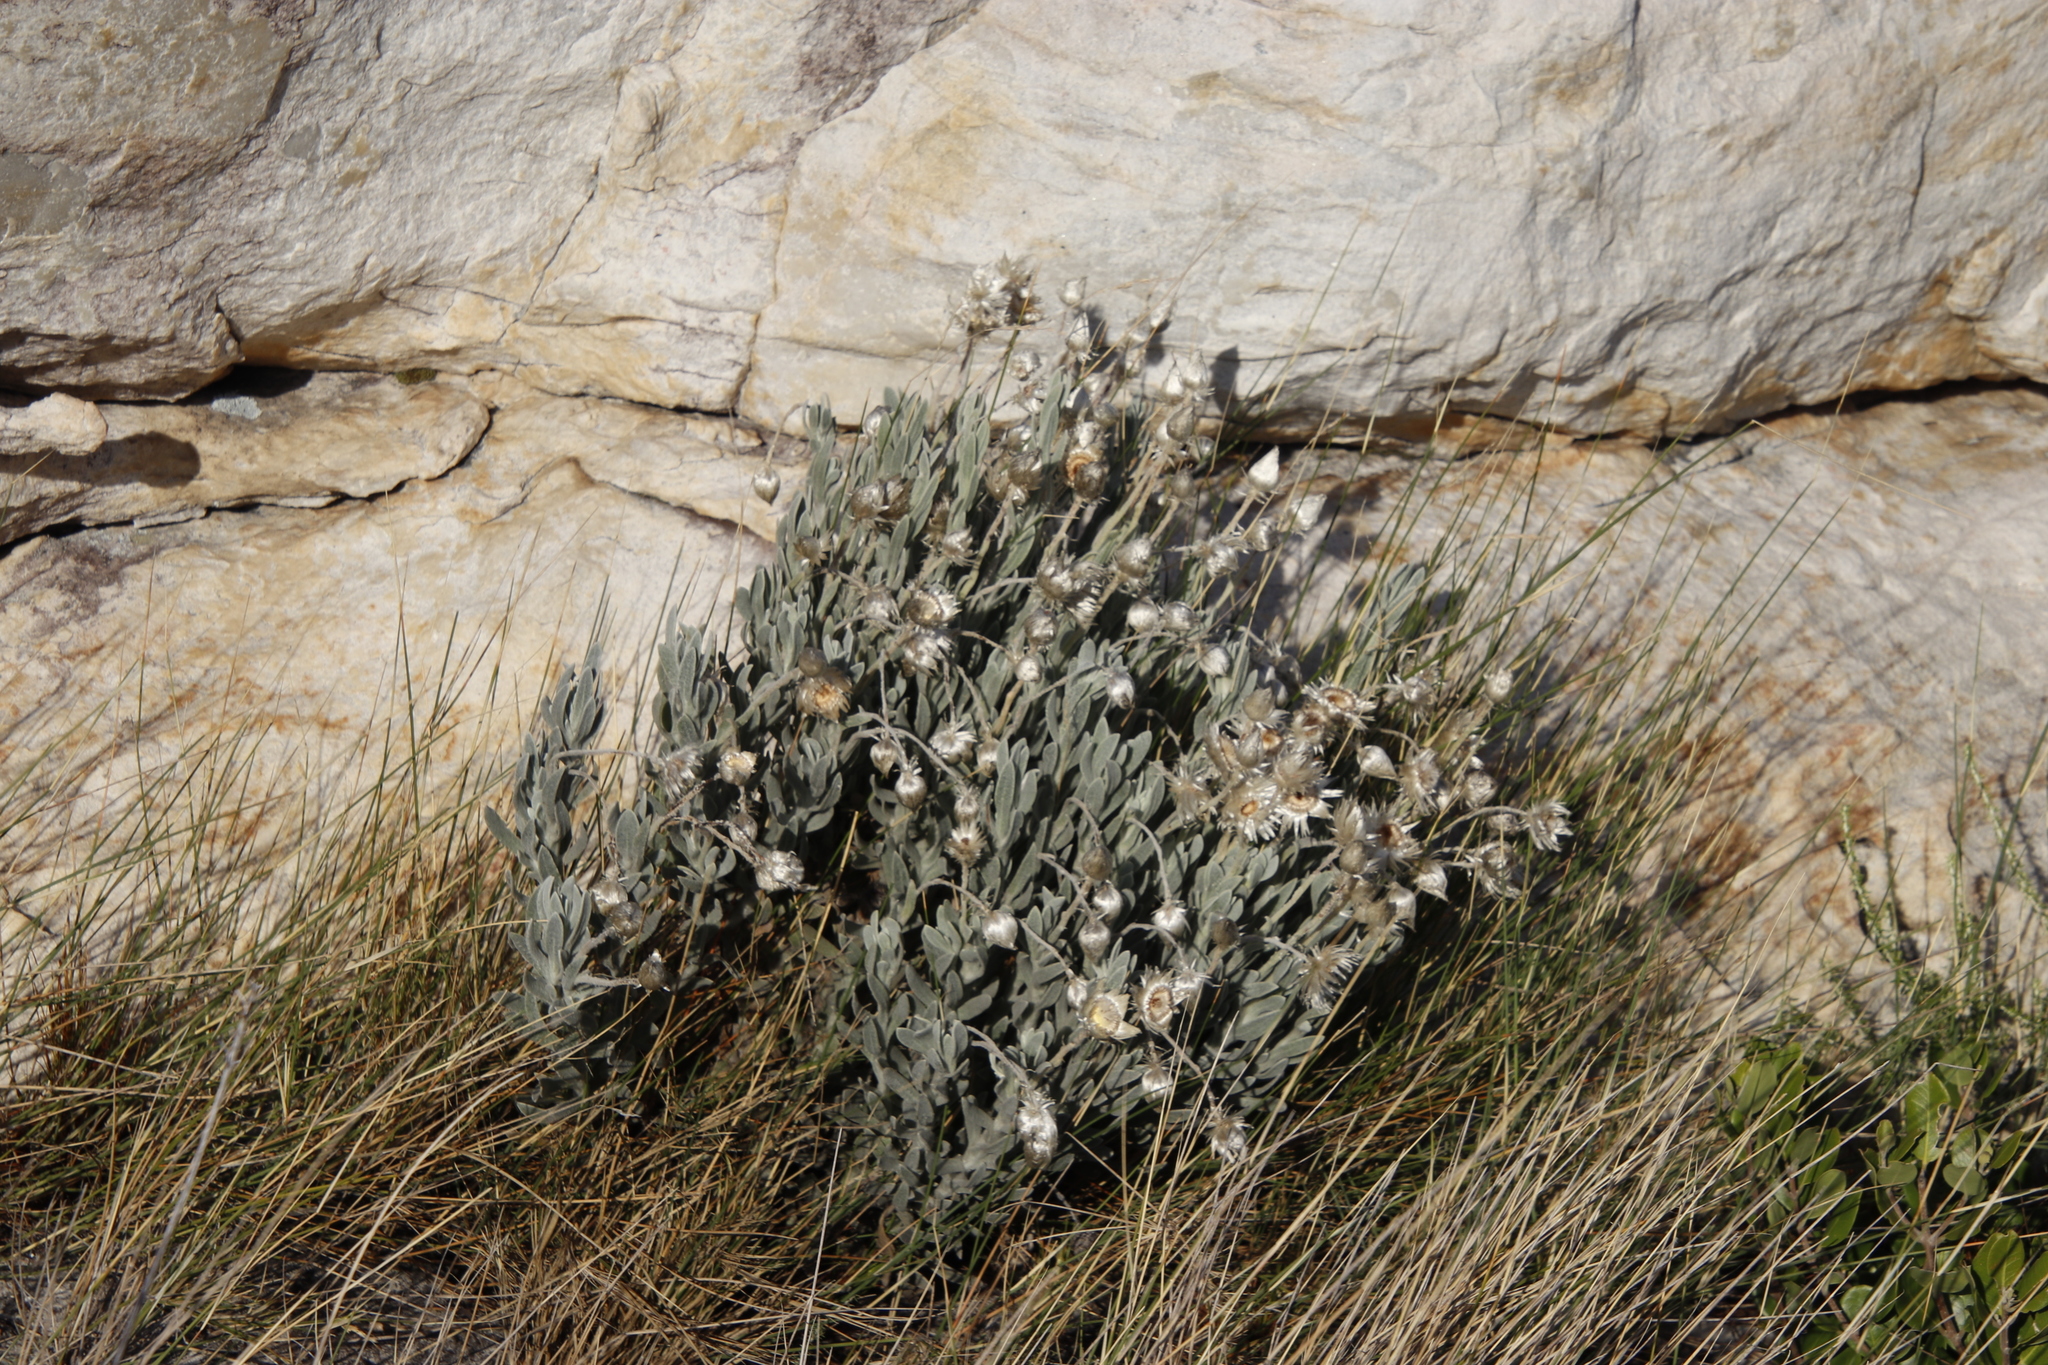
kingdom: Plantae
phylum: Tracheophyta
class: Magnoliopsida
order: Asterales
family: Asteraceae
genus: Syncarpha
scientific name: Syncarpha vestita
